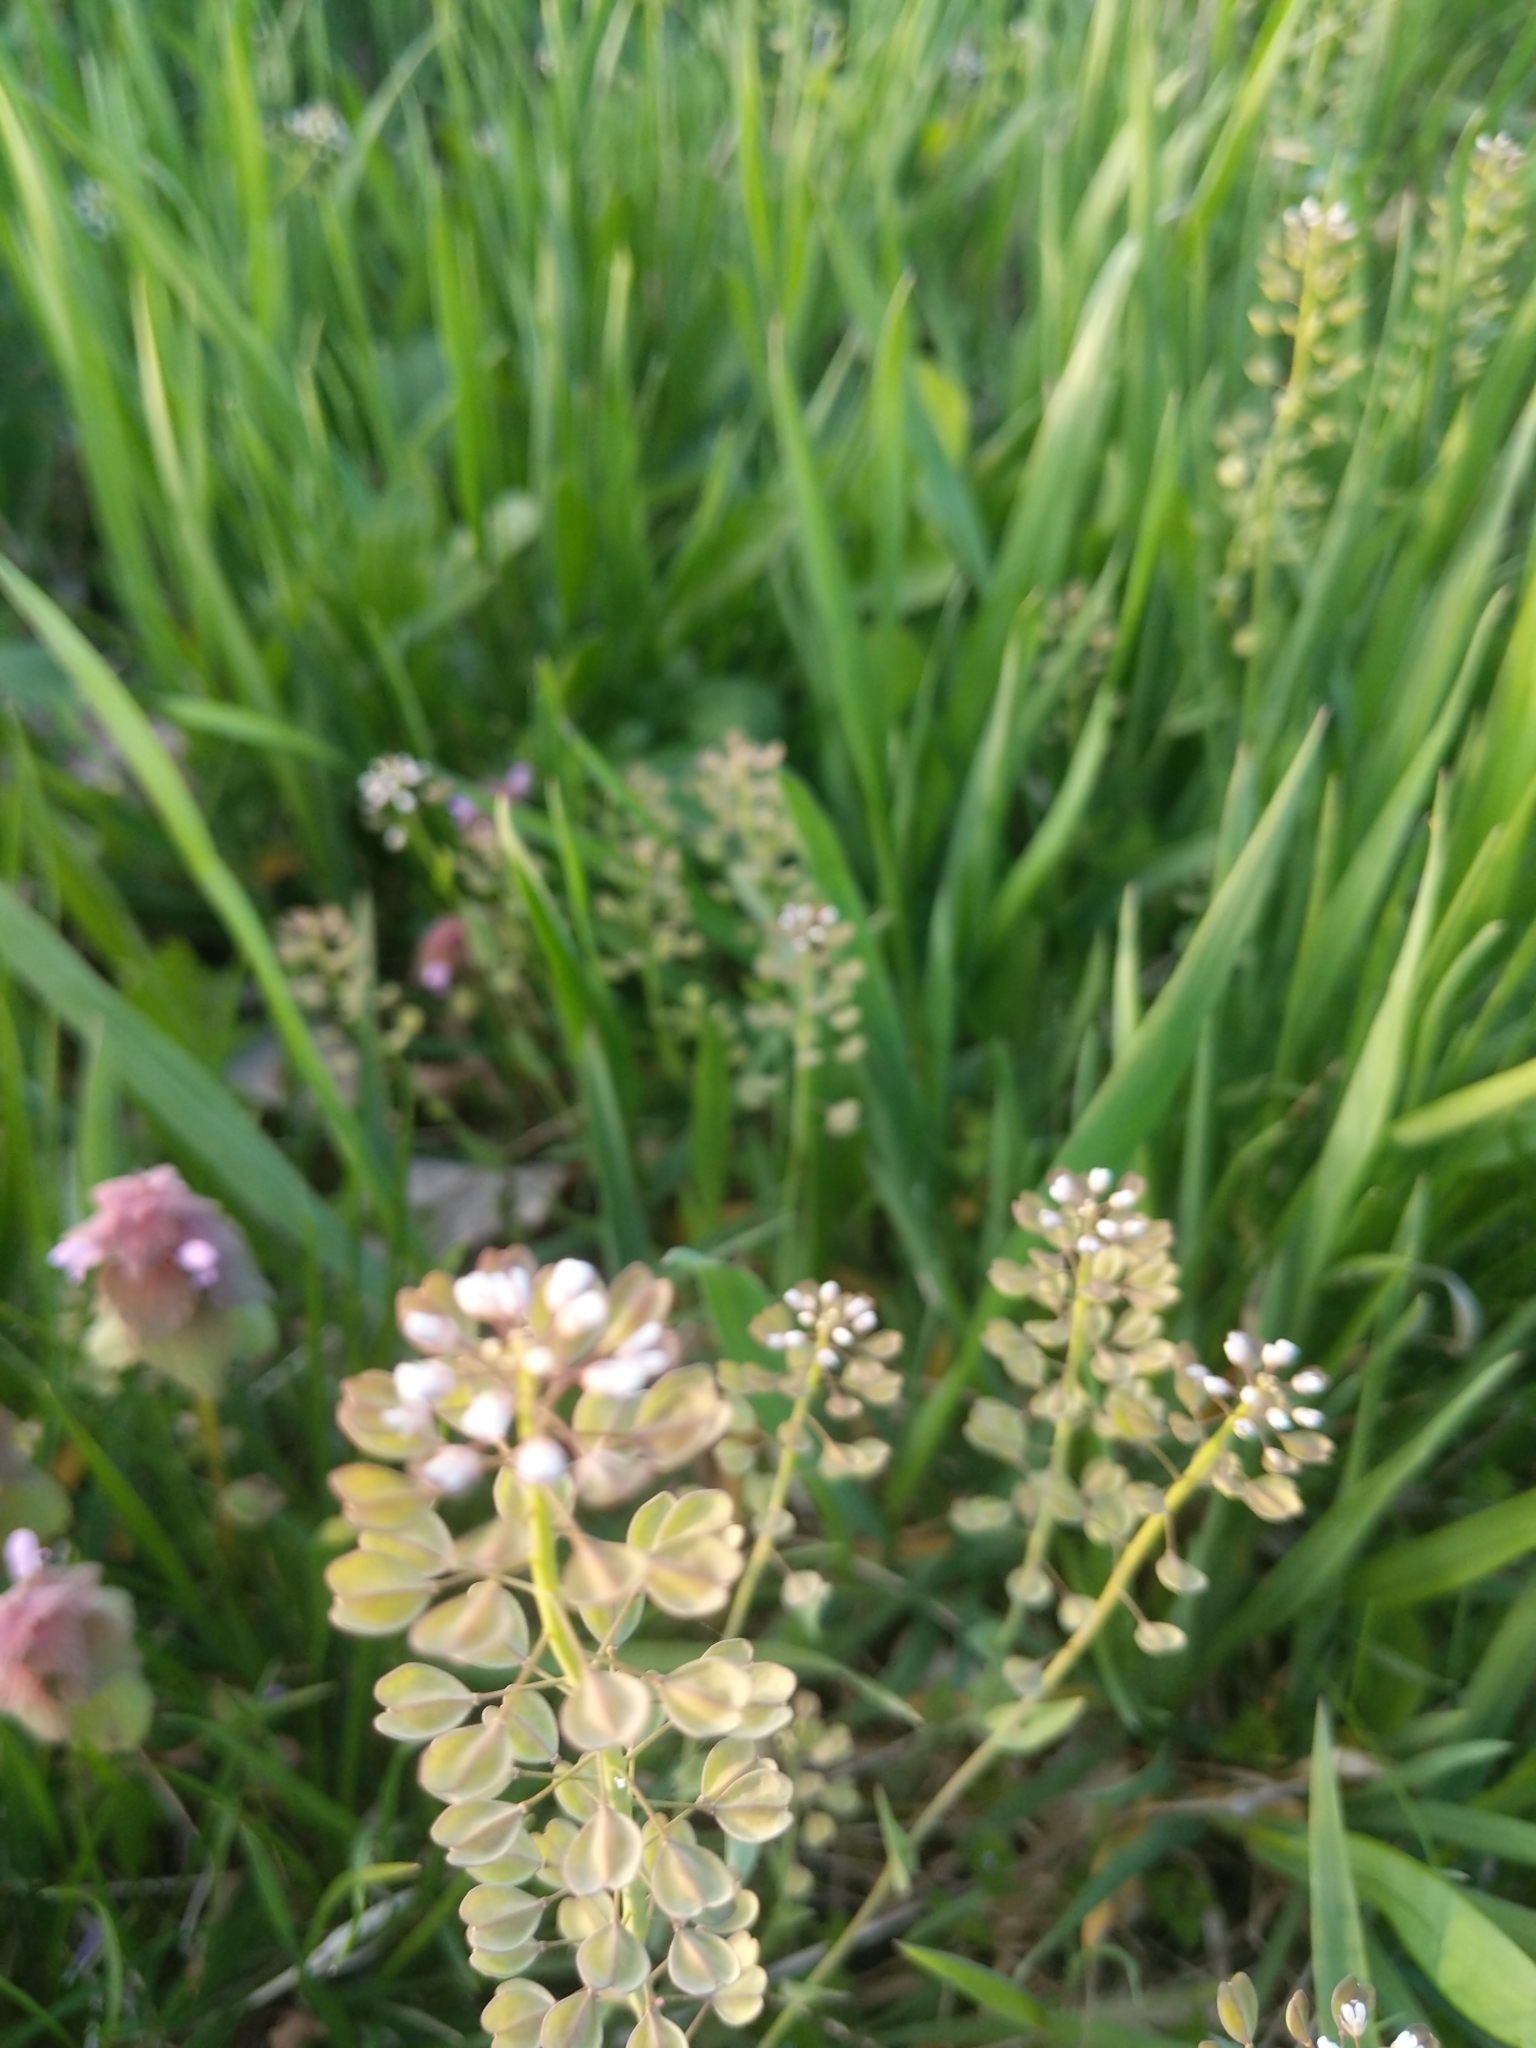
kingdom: Plantae
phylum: Tracheophyta
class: Magnoliopsida
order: Brassicales
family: Brassicaceae
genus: Lepidium
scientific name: Lepidium campestre
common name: Field pepperwort
